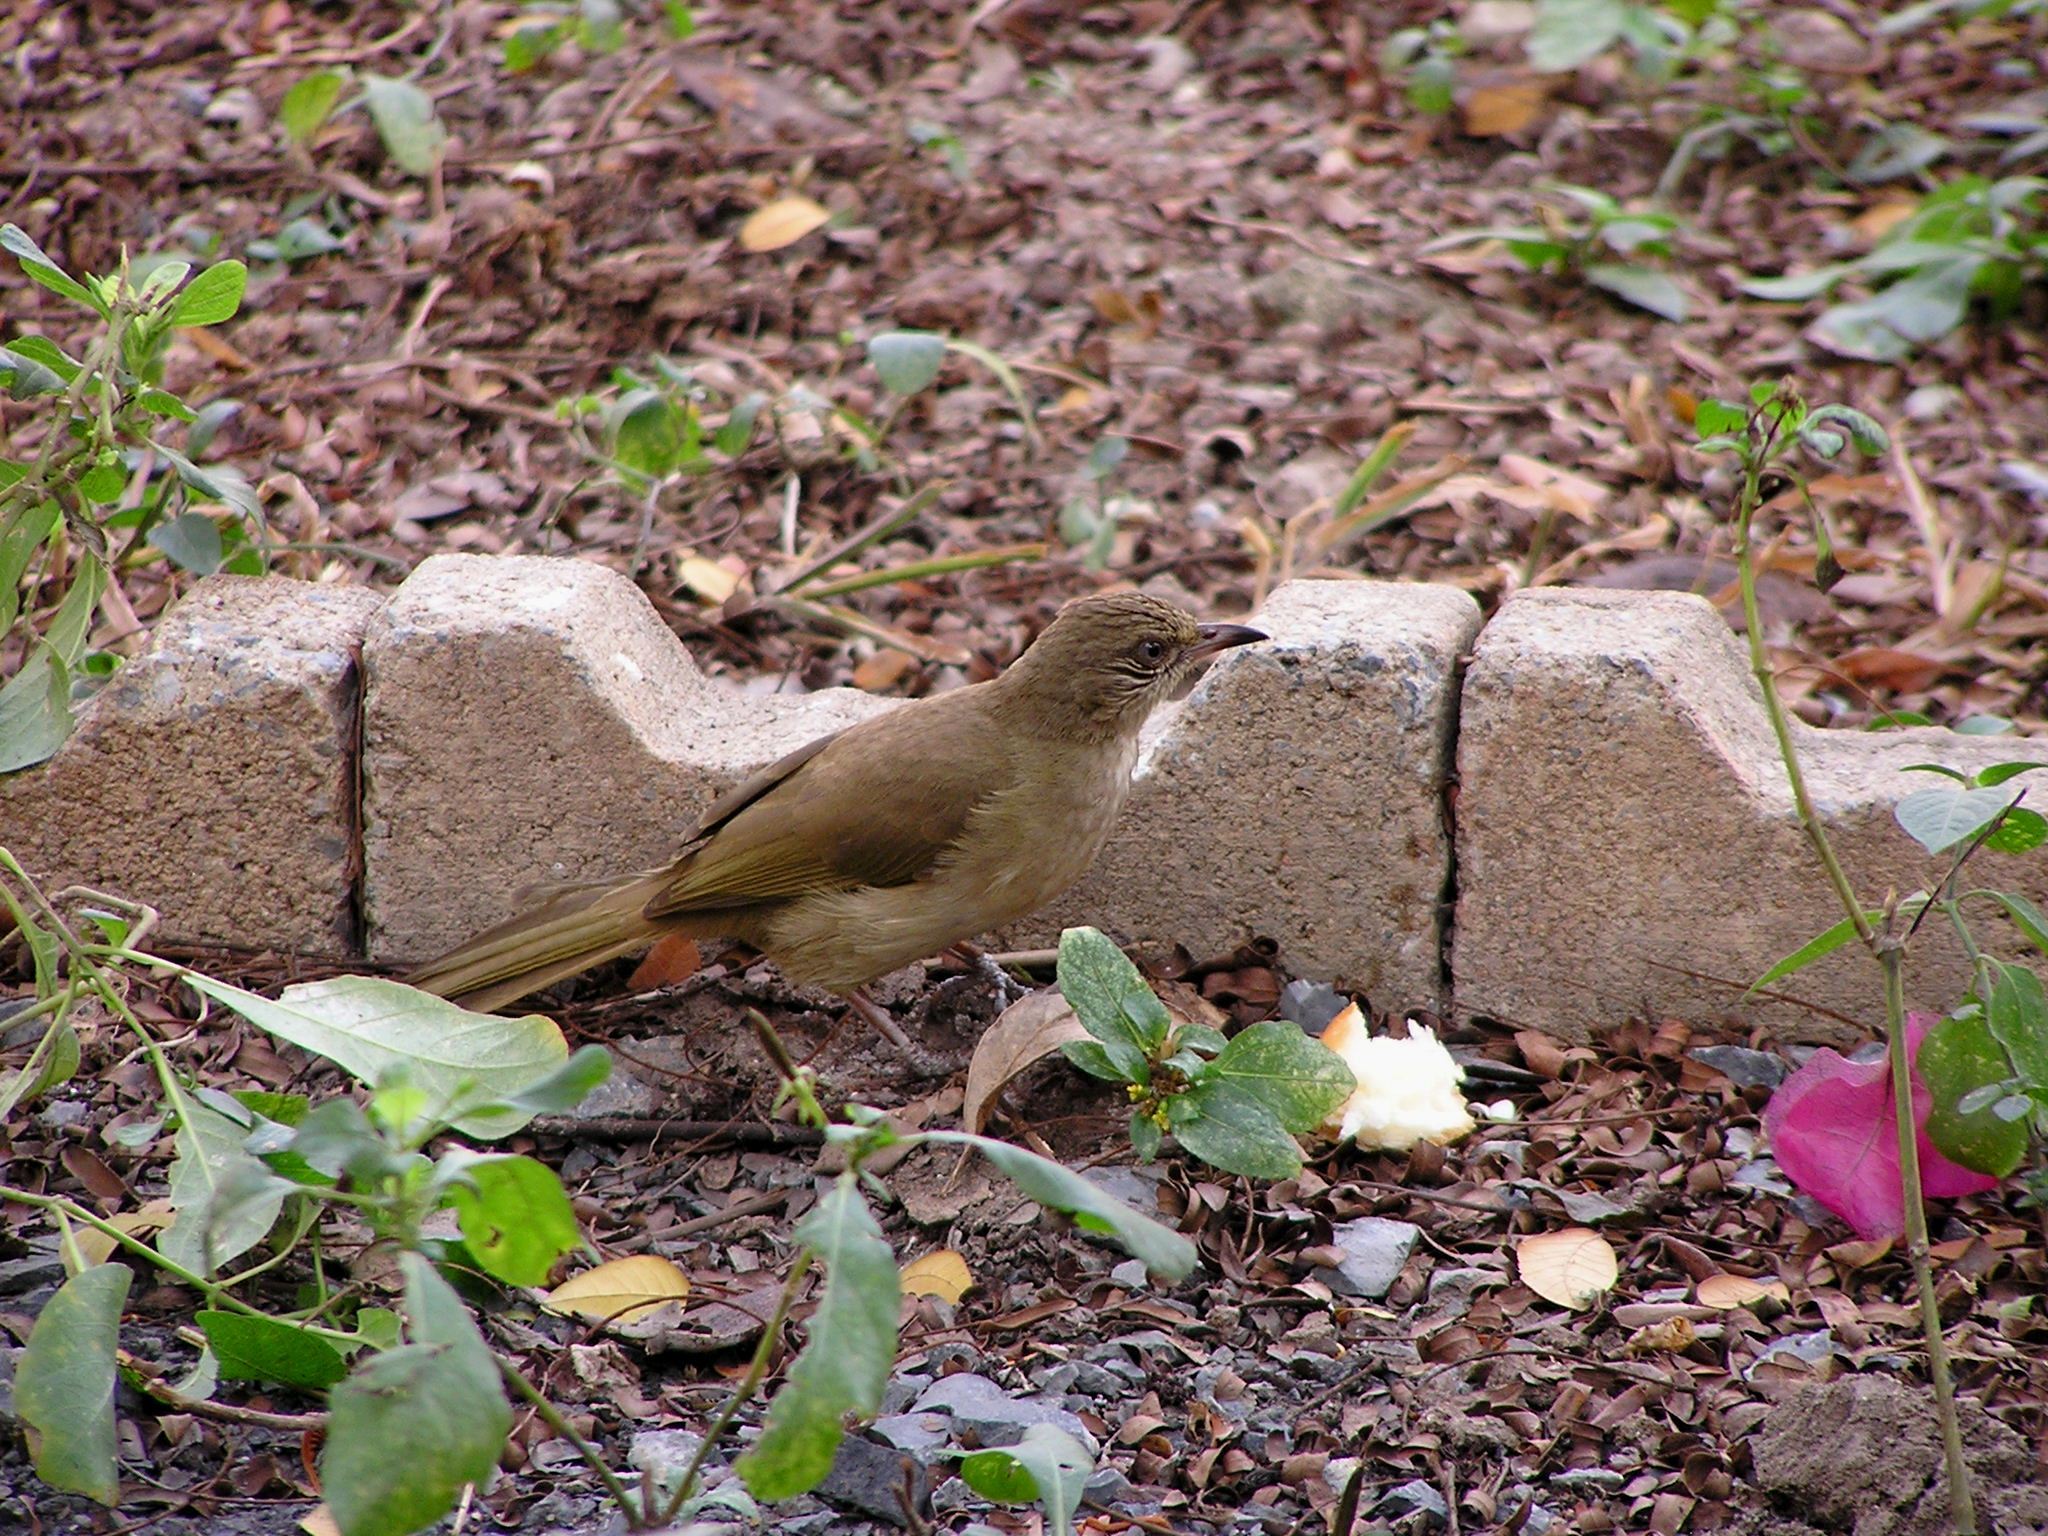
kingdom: Animalia
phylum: Chordata
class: Aves
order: Passeriformes
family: Pycnonotidae
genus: Pycnonotus
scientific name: Pycnonotus blanfordi
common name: Streak-eared bulbul
